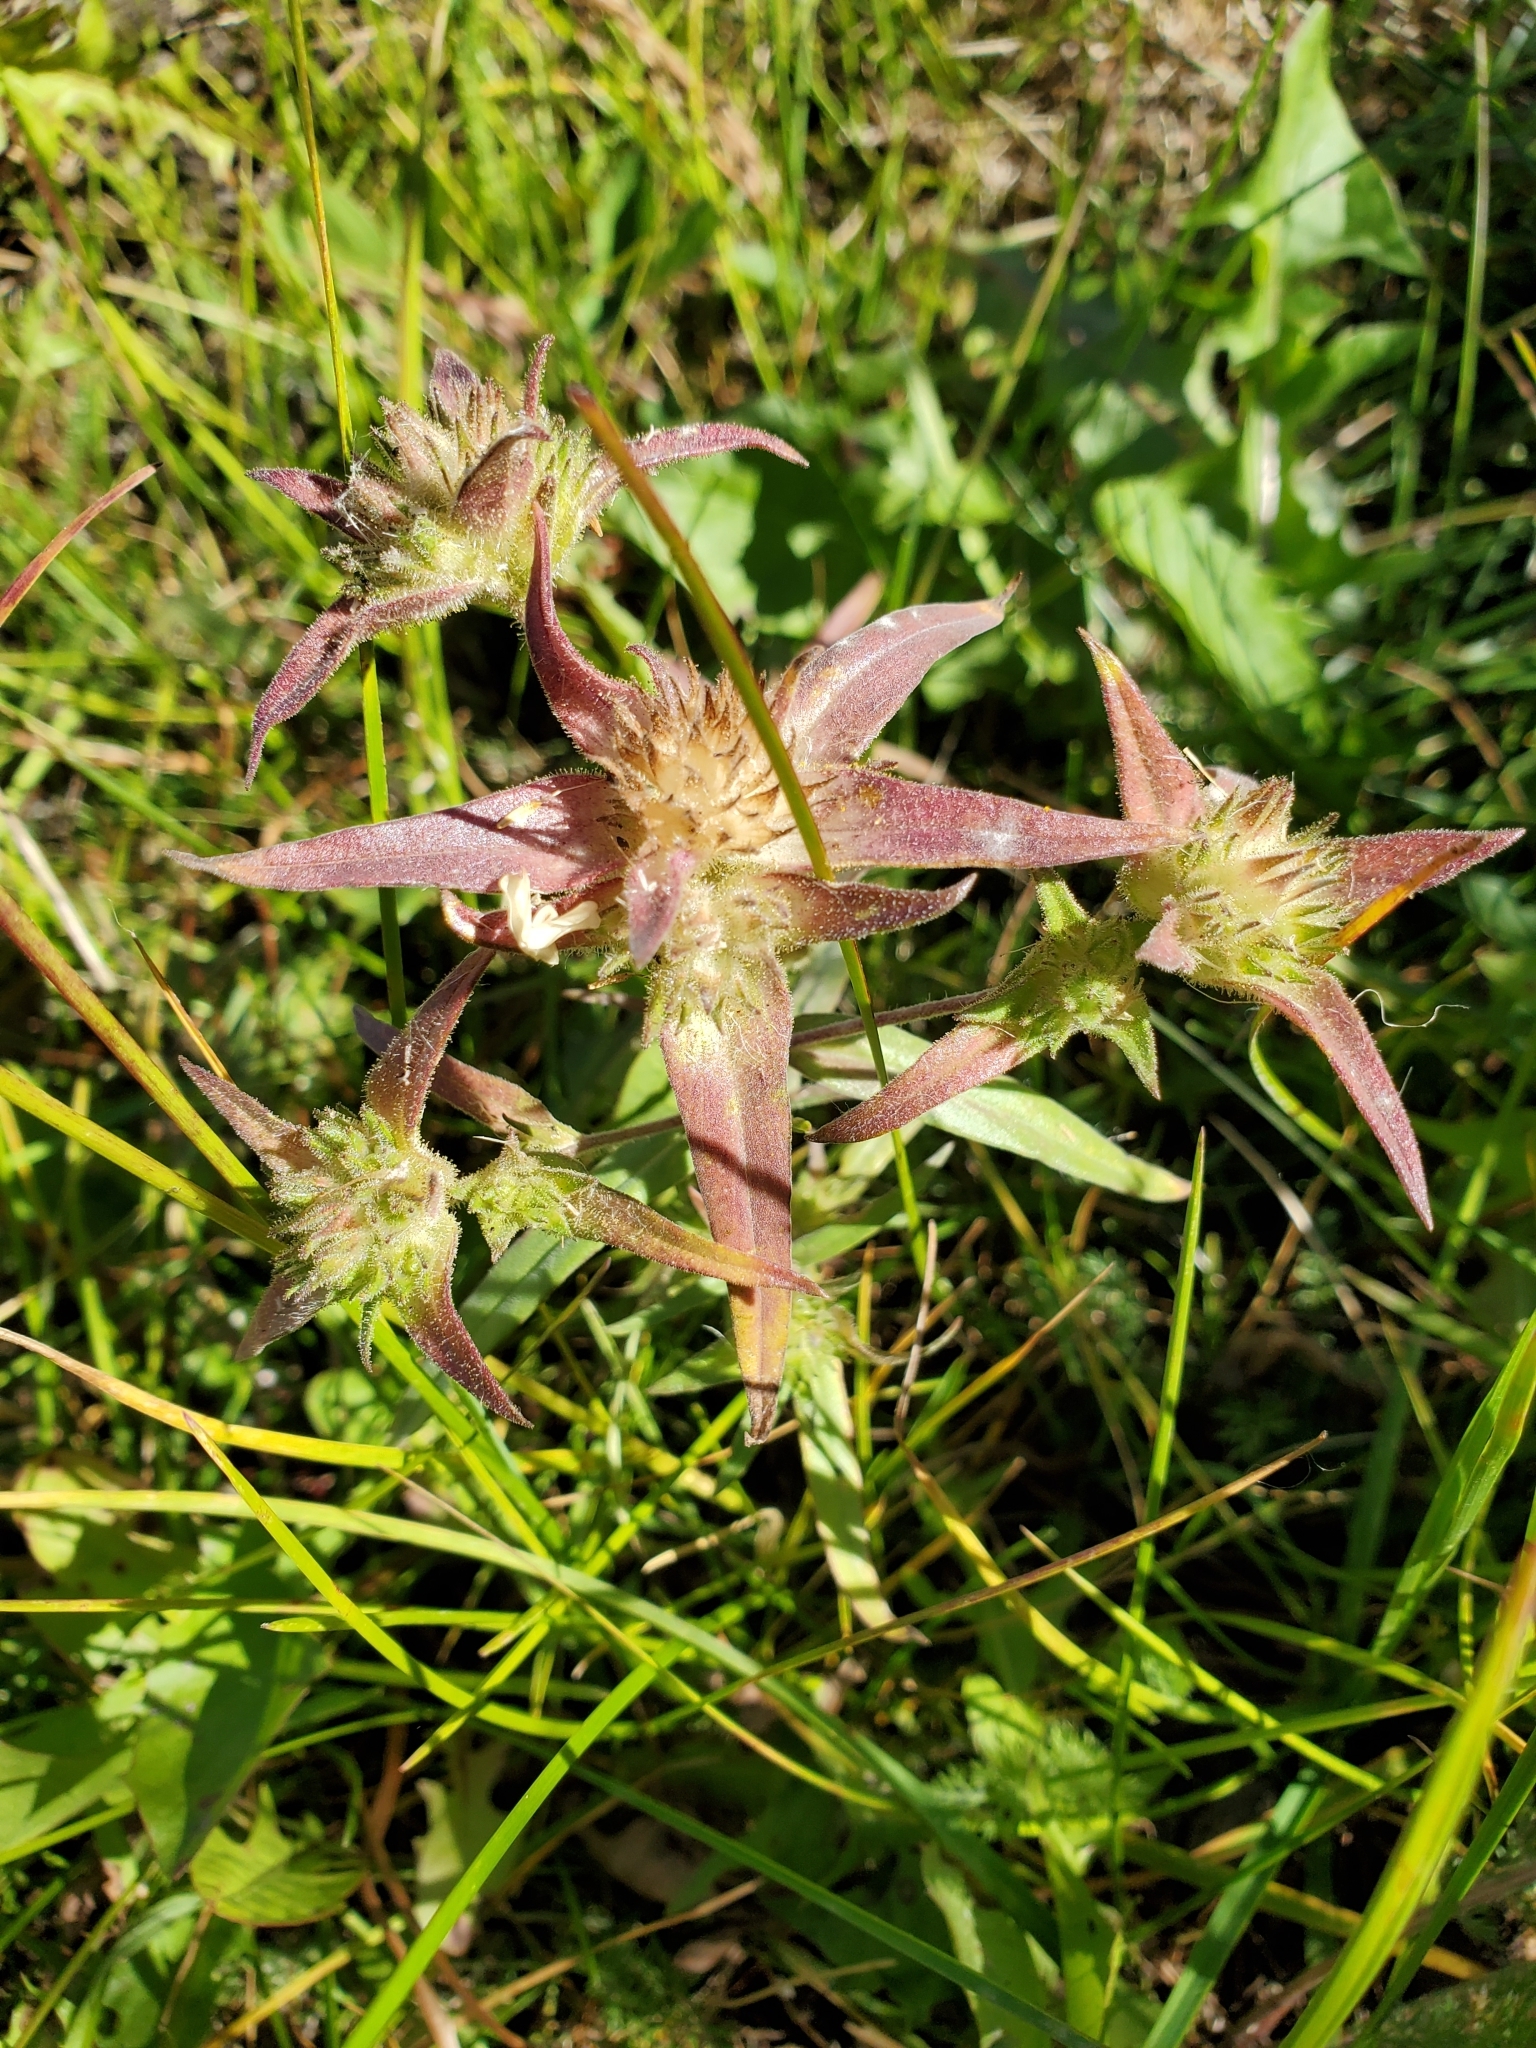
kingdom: Plantae
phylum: Tracheophyta
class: Magnoliopsida
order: Ericales
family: Polemoniaceae
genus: Collomia
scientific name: Collomia linearis
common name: Tiny trumpet
